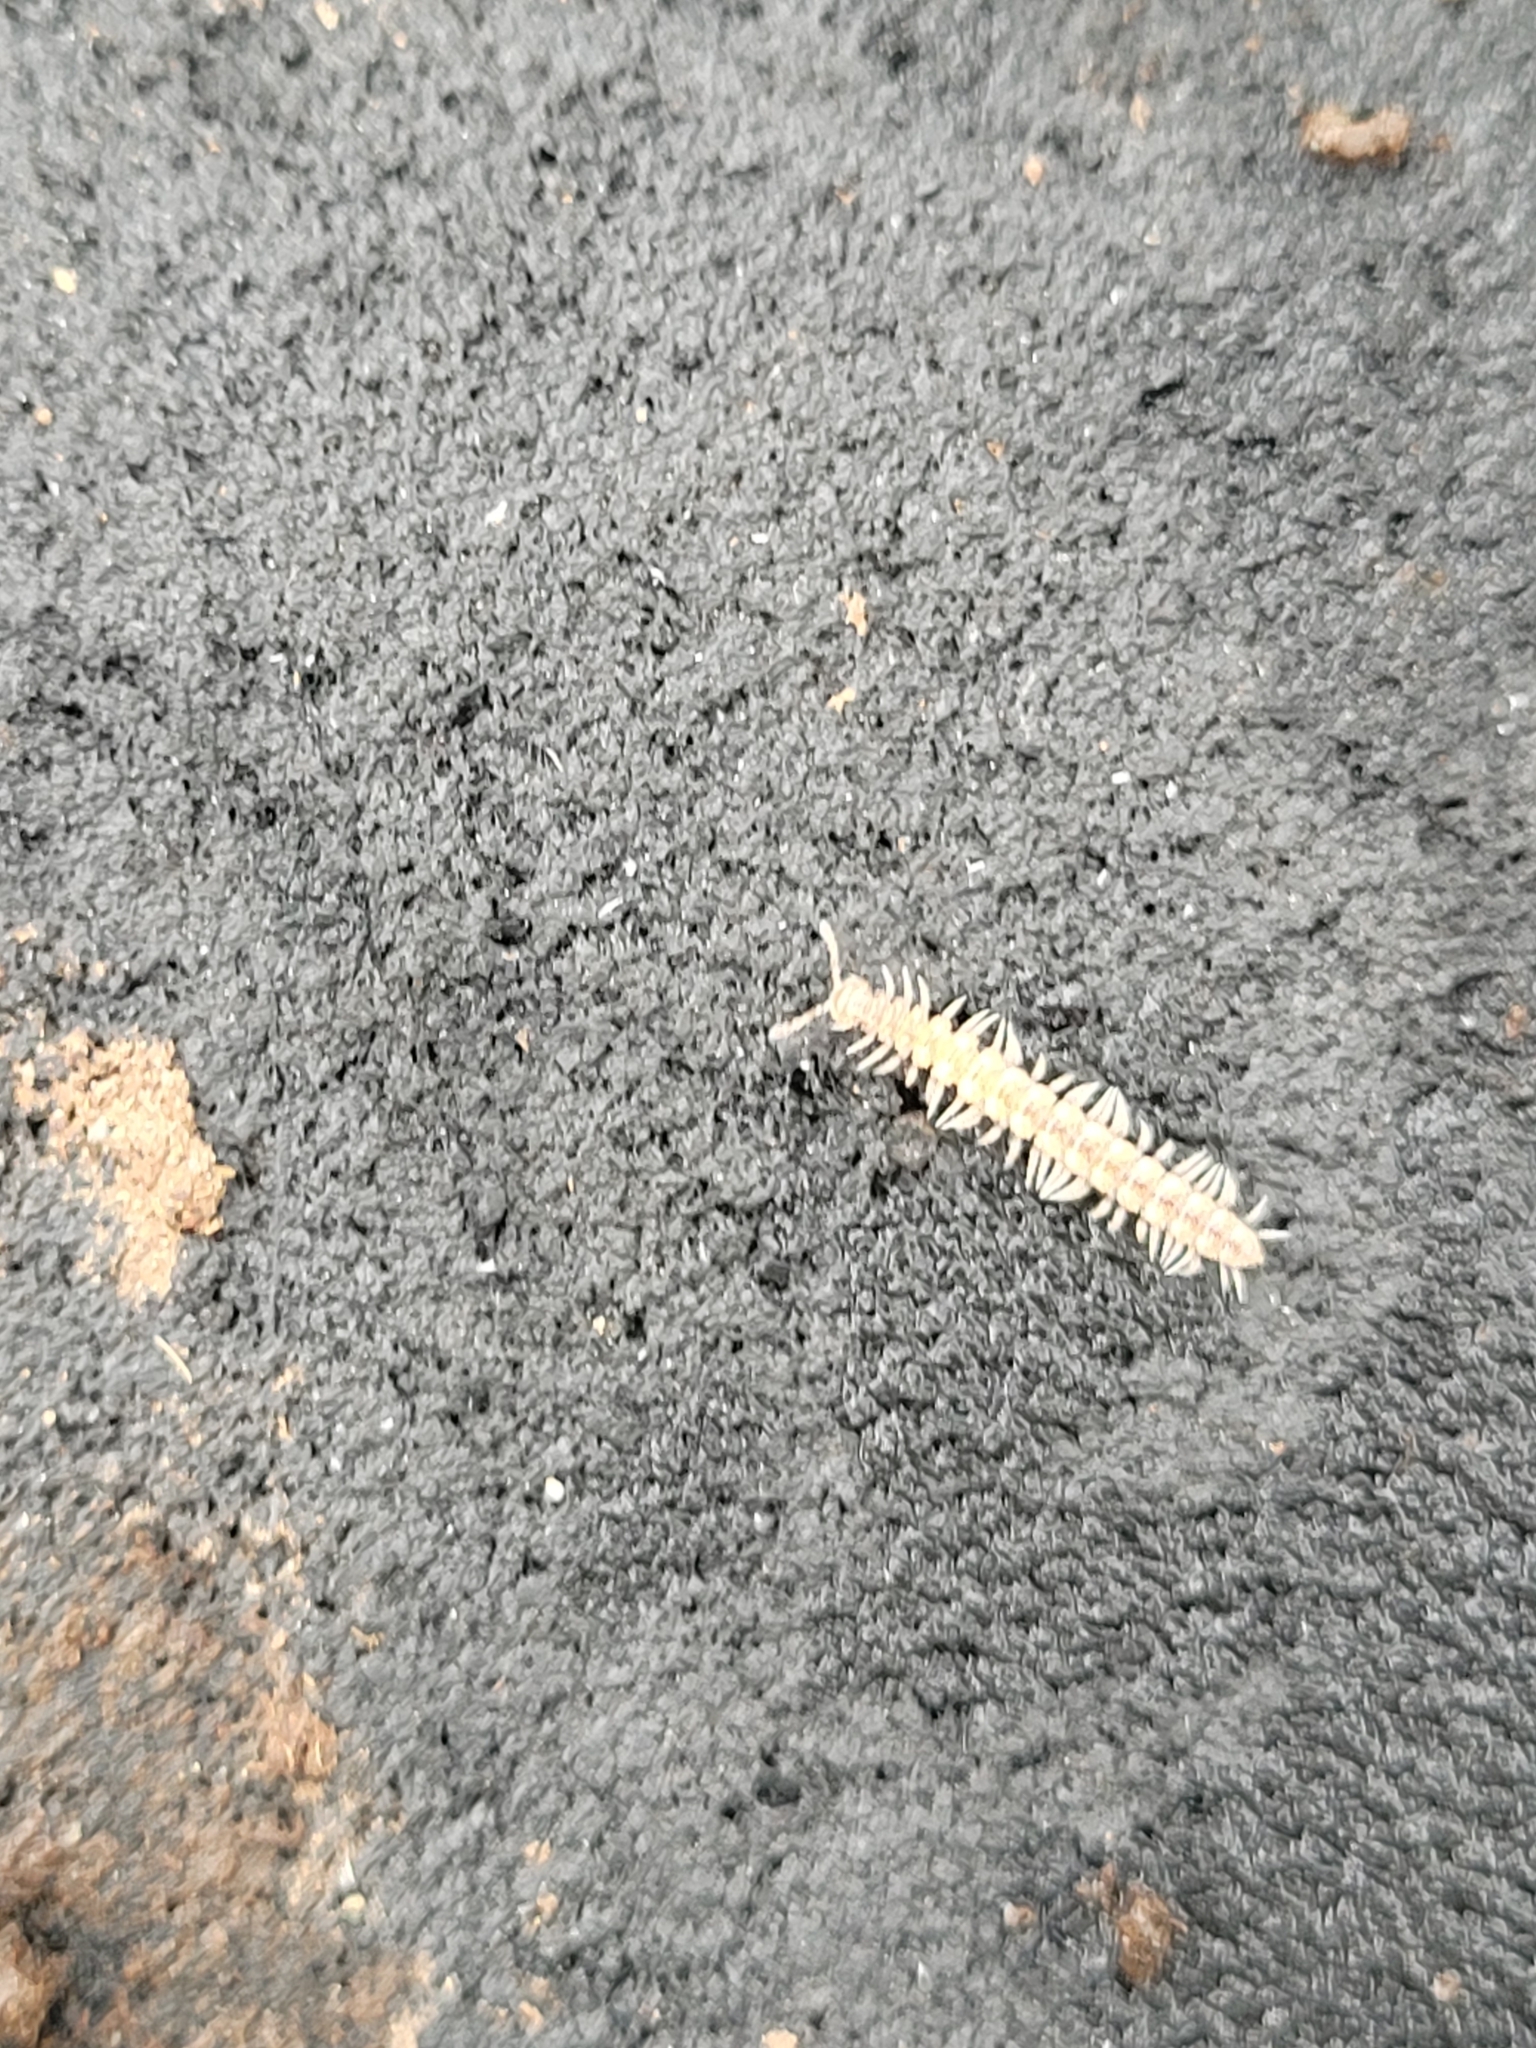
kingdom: Animalia
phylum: Arthropoda
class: Diplopoda
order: Polydesmida
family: Polydesmidae
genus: Polydesmus
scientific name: Polydesmus angustus
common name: Flat millipede
